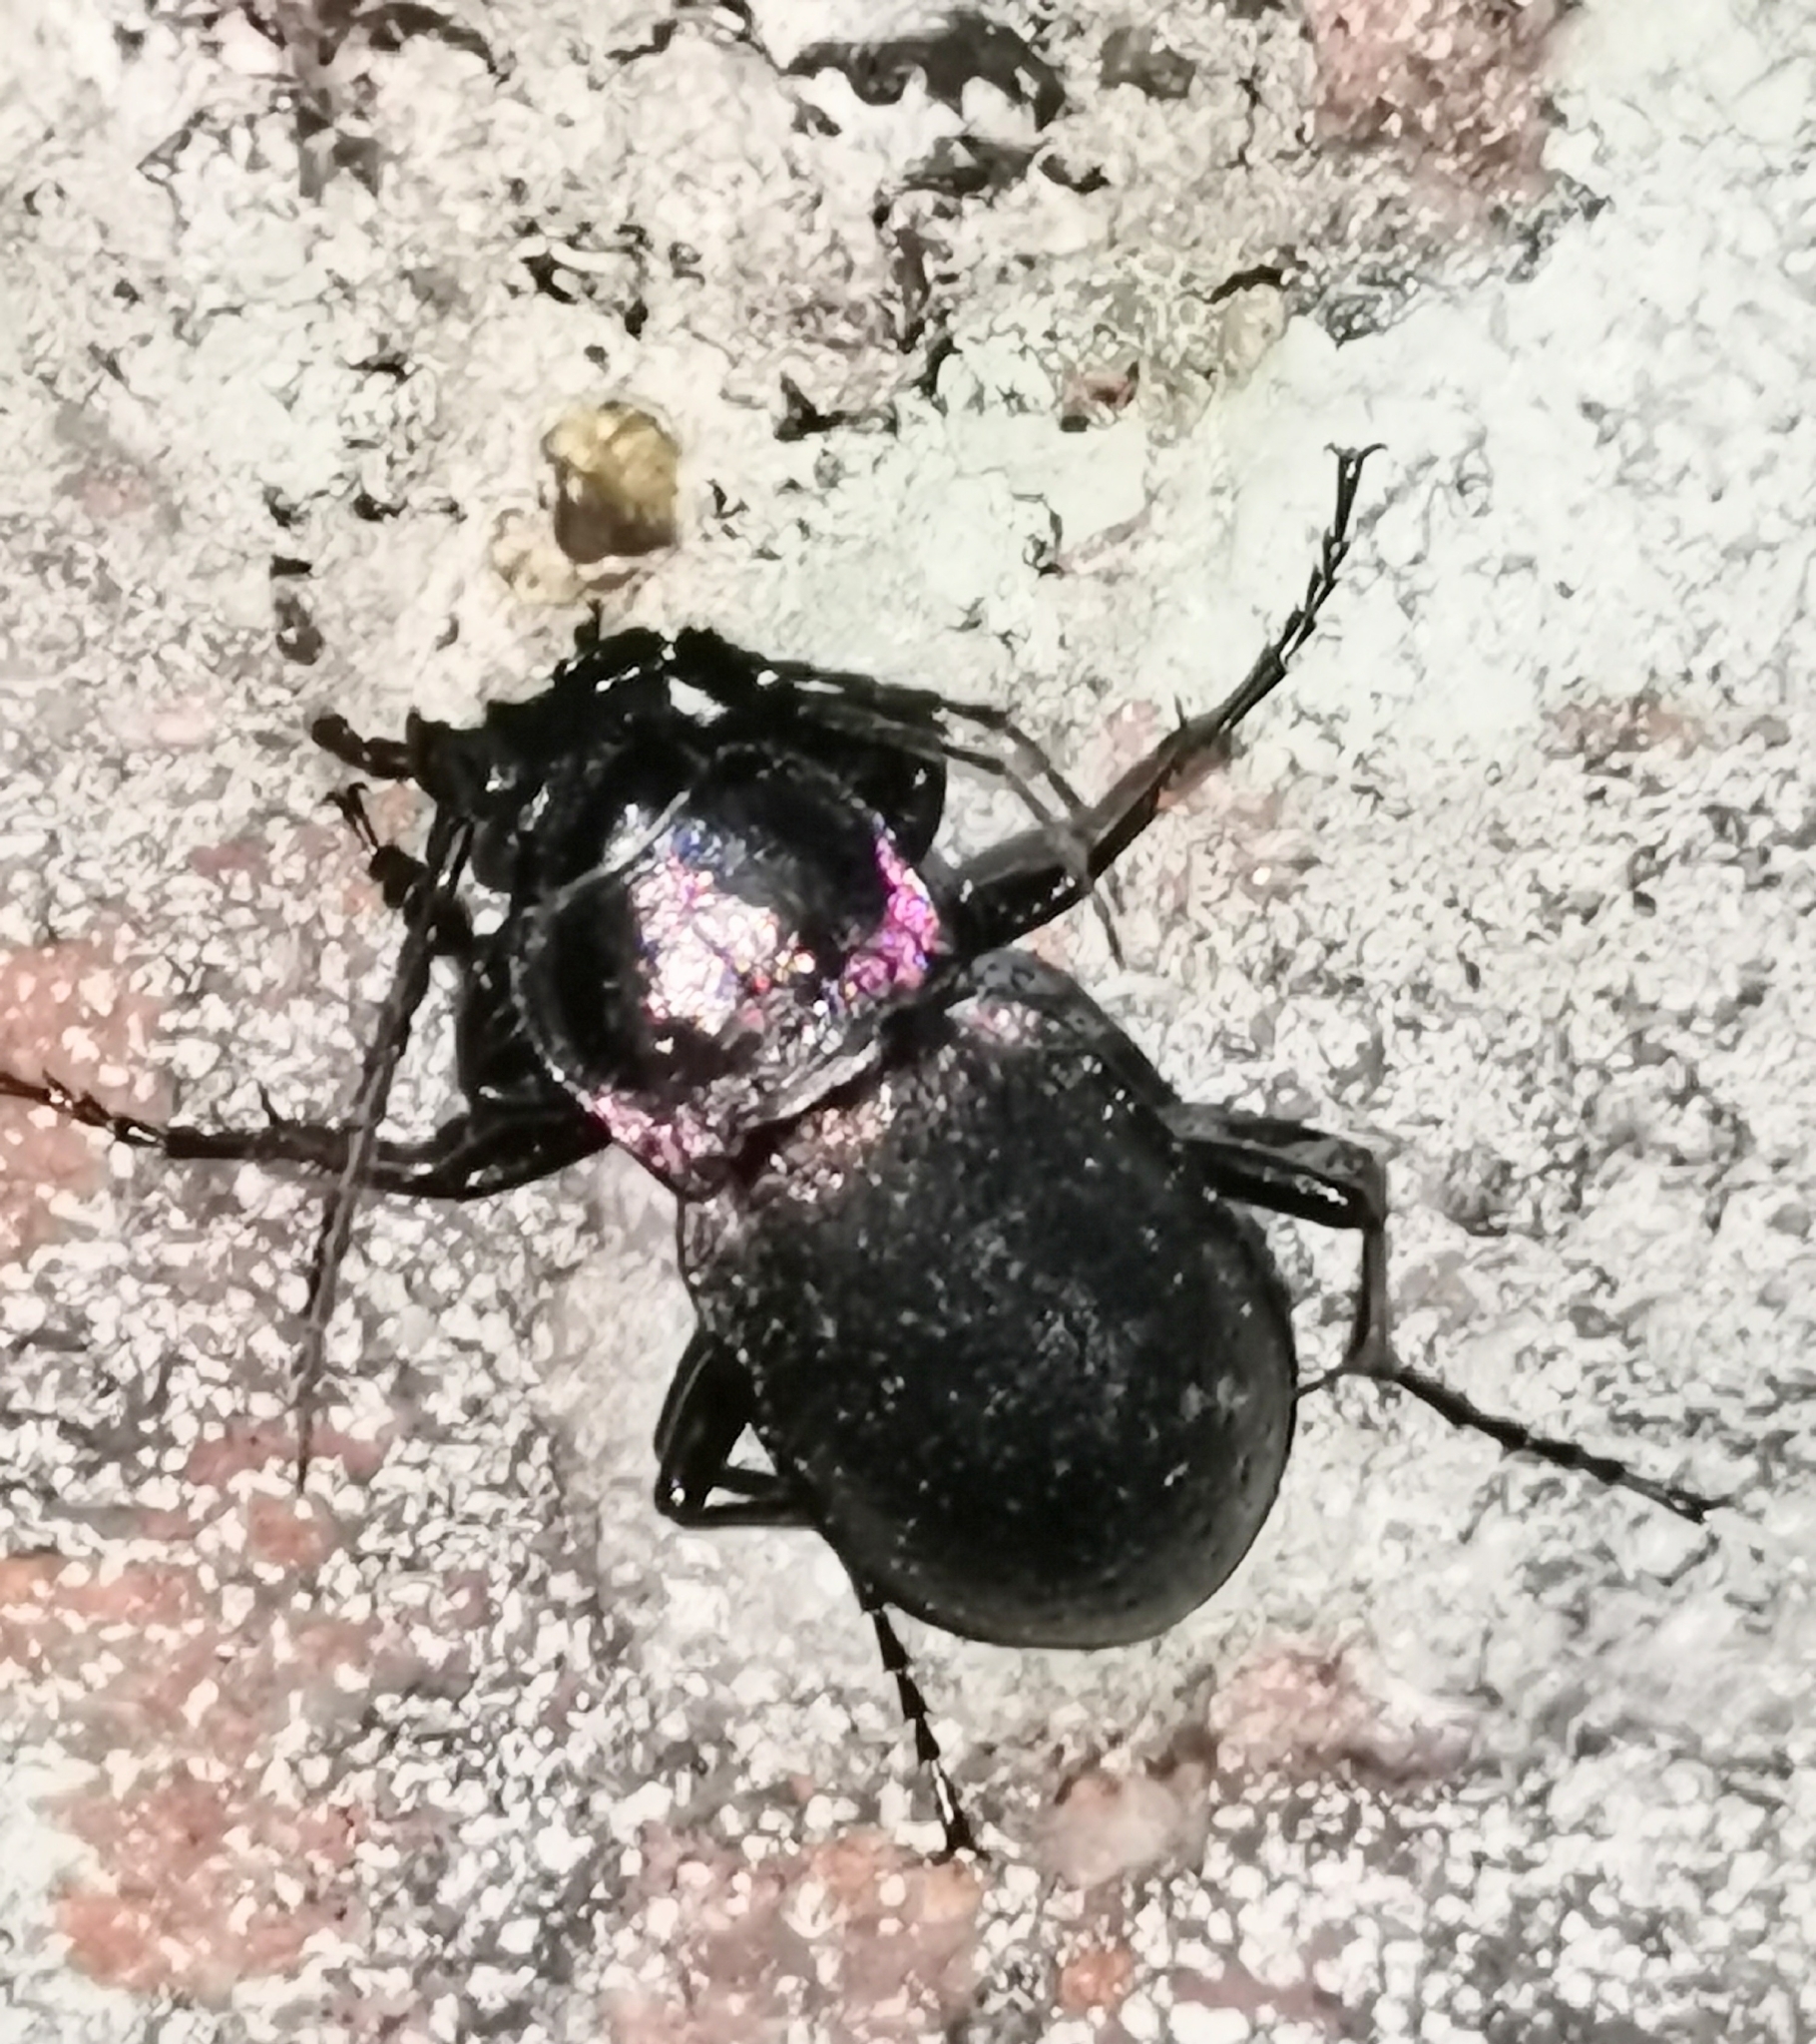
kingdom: Animalia
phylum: Arthropoda
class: Insecta
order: Coleoptera
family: Carabidae
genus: Carabus
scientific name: Carabus nemoralis
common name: European ground beetle
